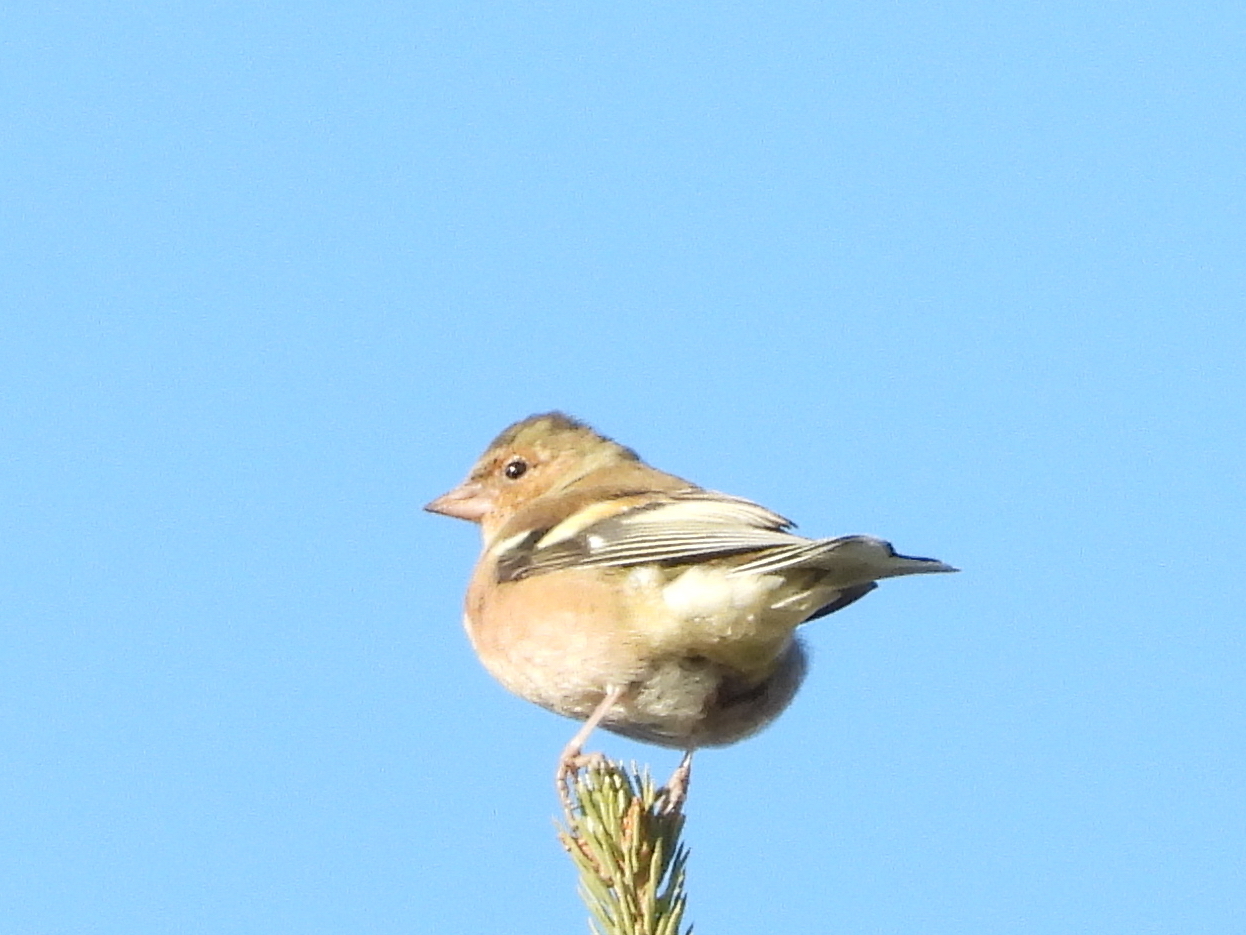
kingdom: Animalia
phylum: Chordata
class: Aves
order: Passeriformes
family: Fringillidae
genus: Fringilla
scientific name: Fringilla coelebs
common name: Common chaffinch
